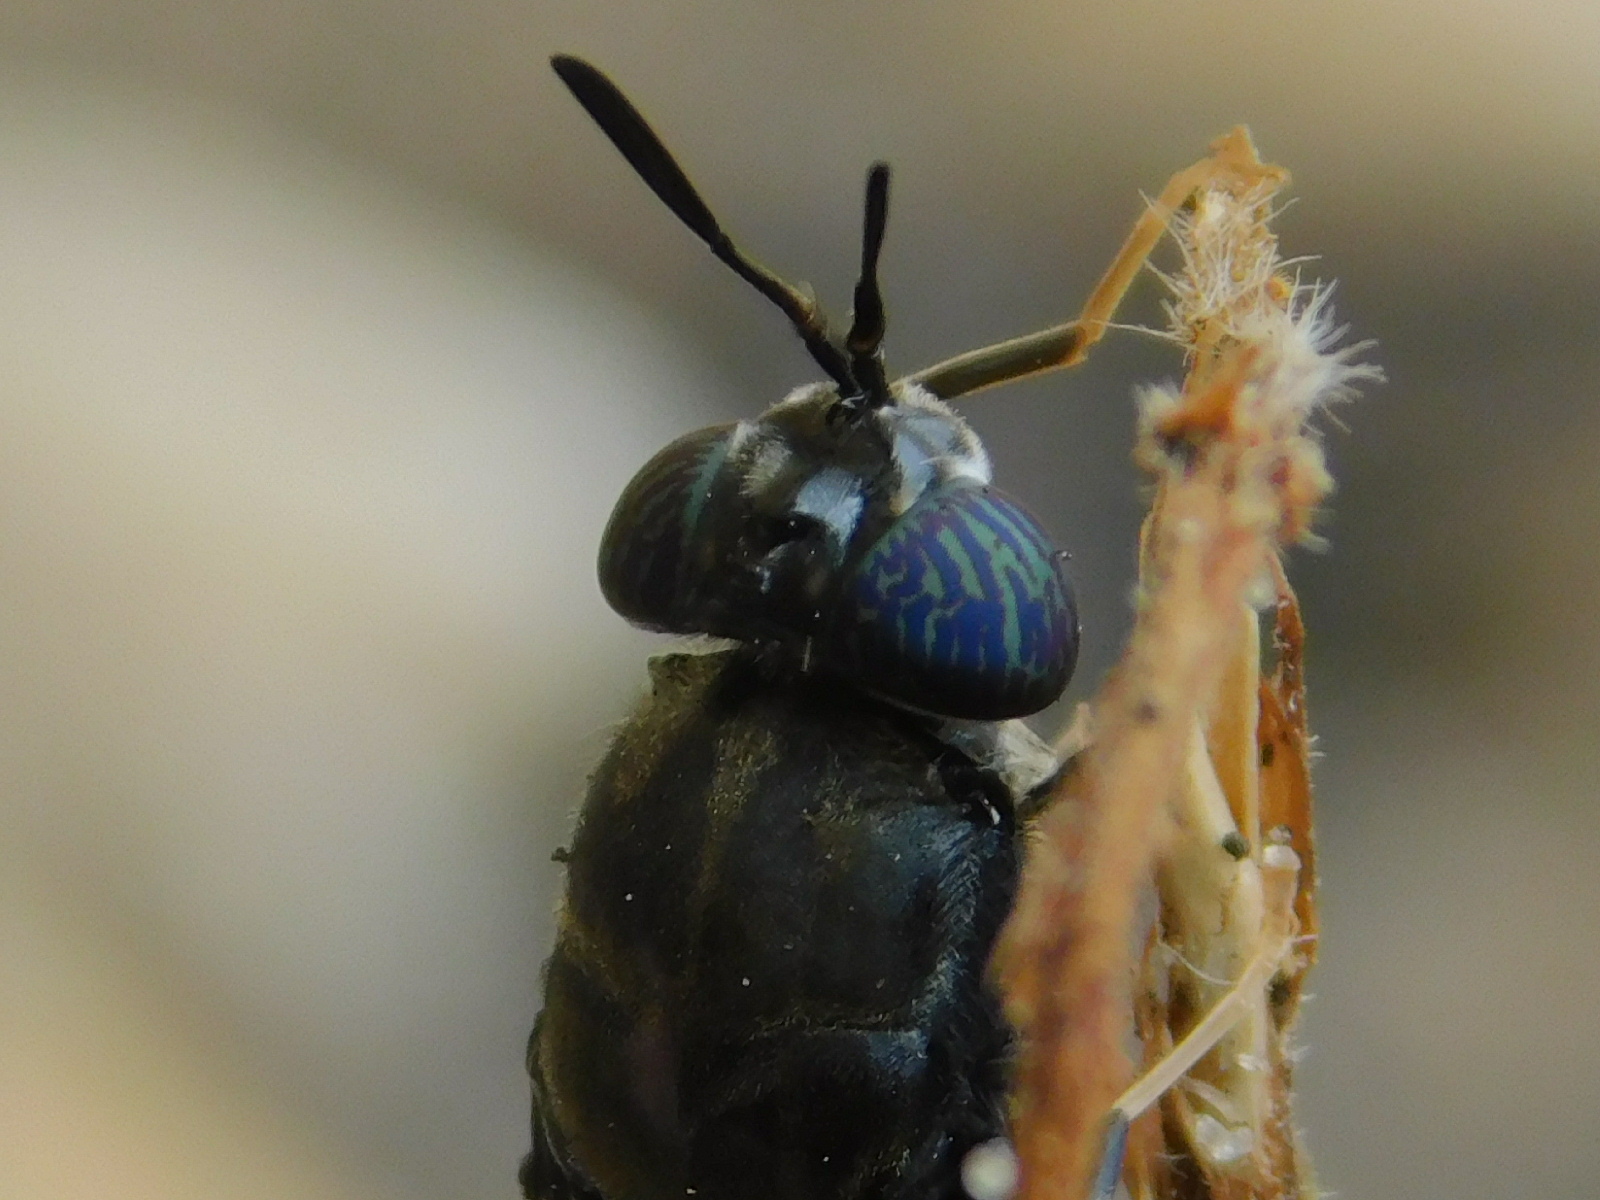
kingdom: Animalia
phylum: Arthropoda
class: Insecta
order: Diptera
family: Stratiomyidae
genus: Hermetia
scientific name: Hermetia illucens
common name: Black soldier fly
